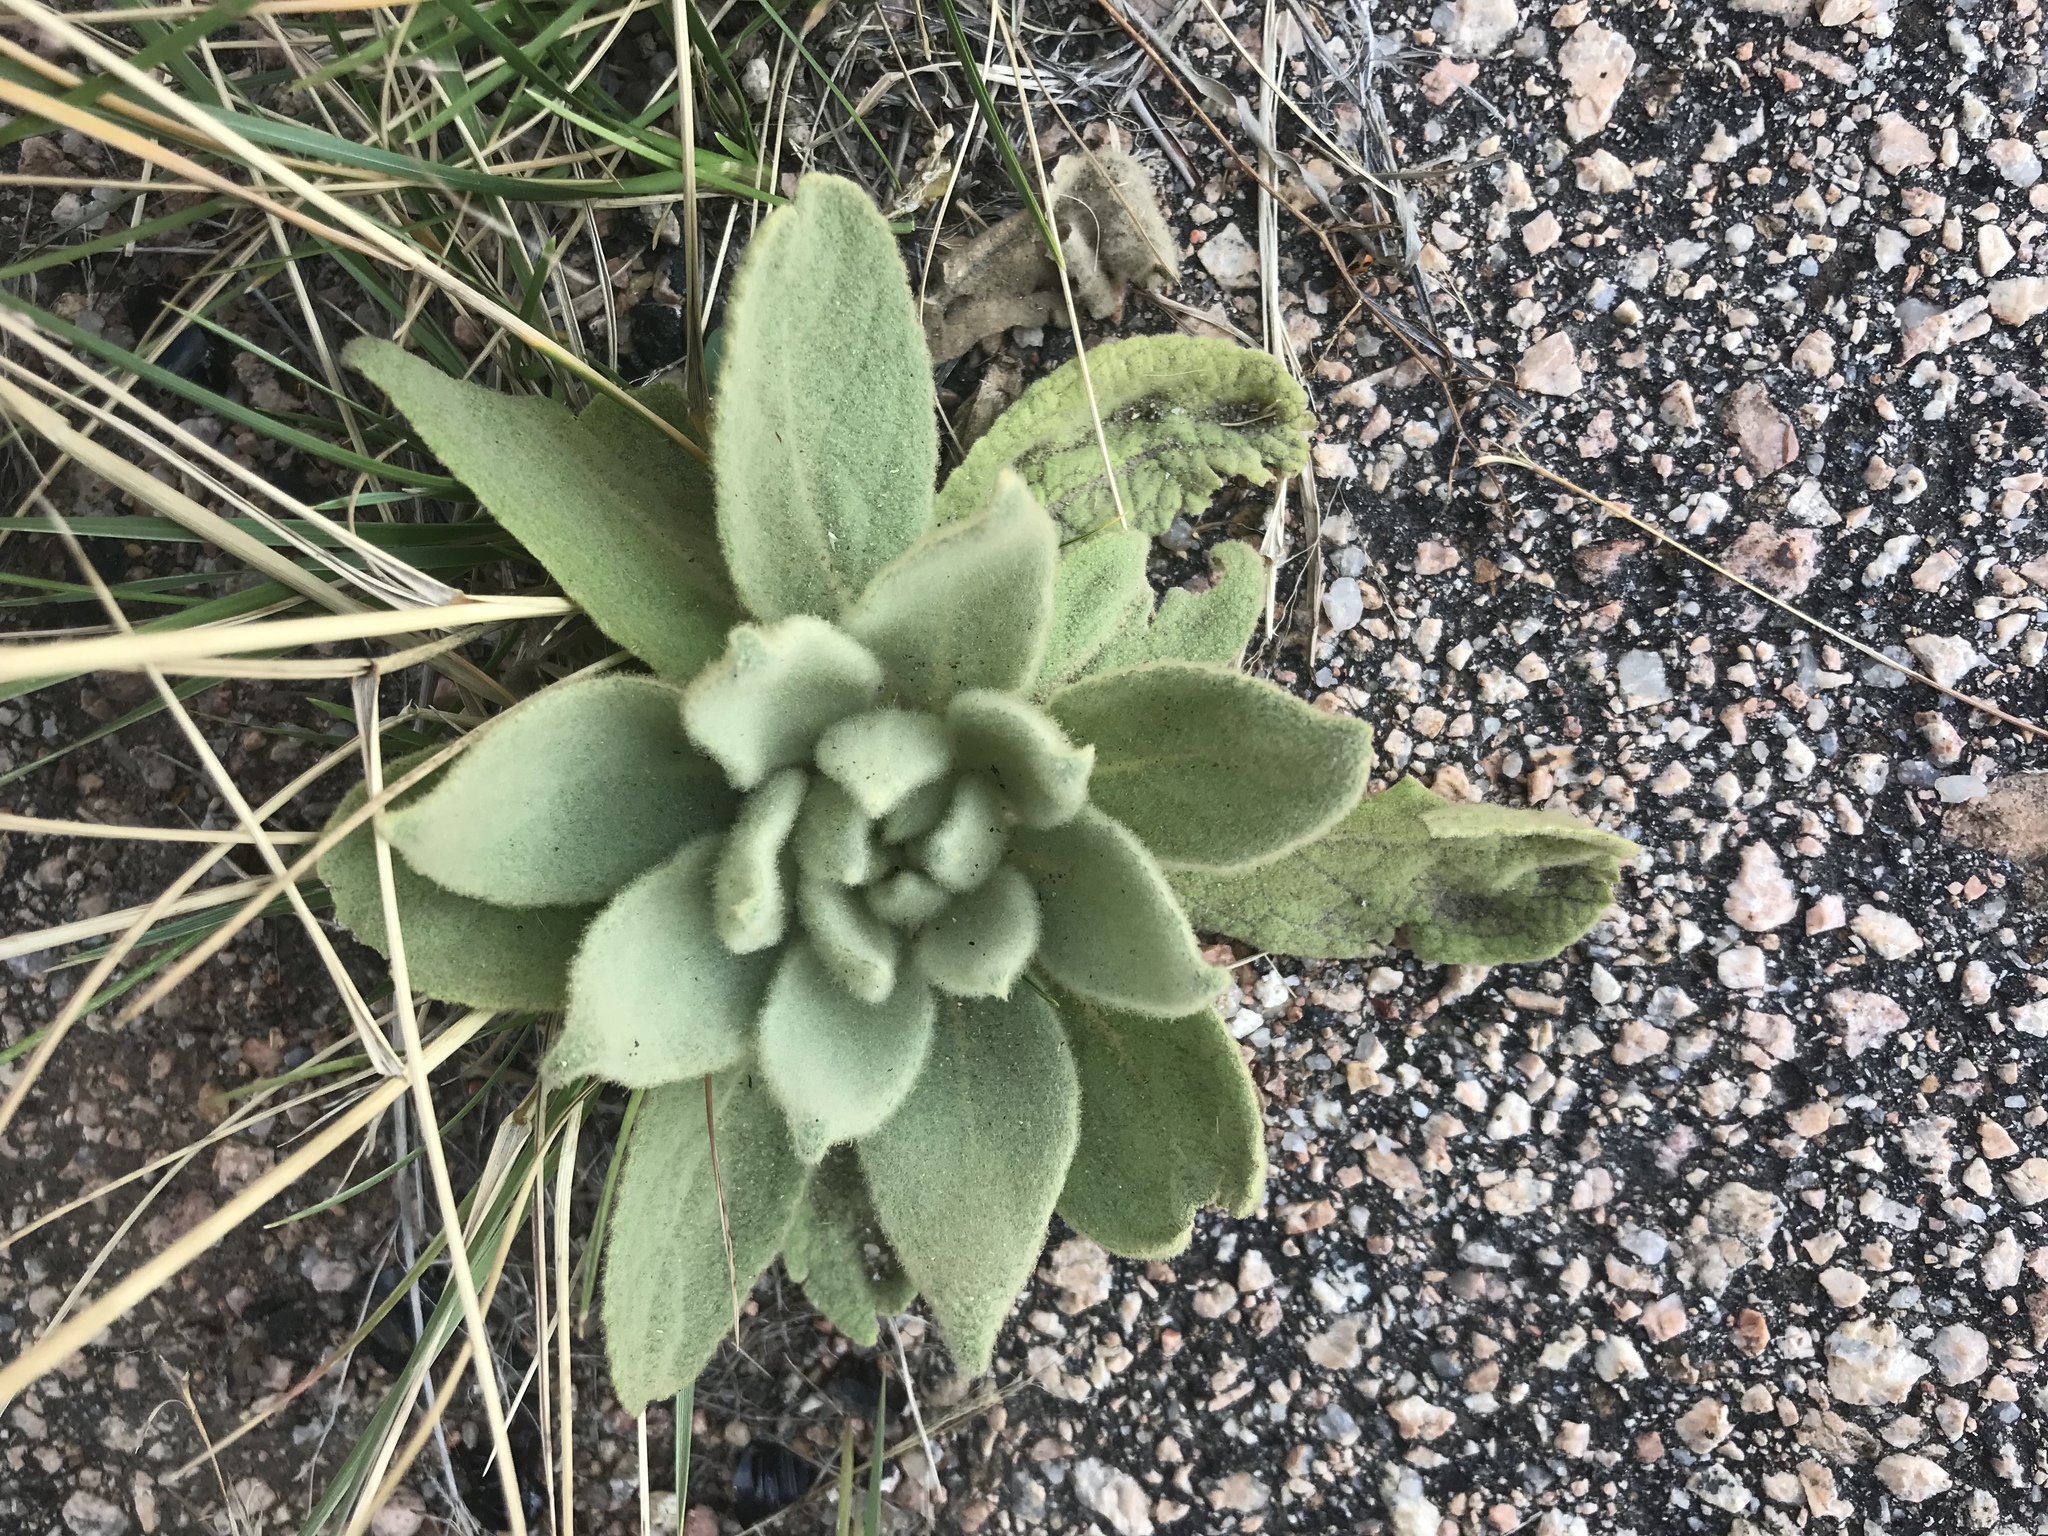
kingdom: Plantae
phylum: Tracheophyta
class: Magnoliopsida
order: Lamiales
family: Scrophulariaceae
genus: Verbascum
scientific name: Verbascum thapsus
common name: Common mullein
